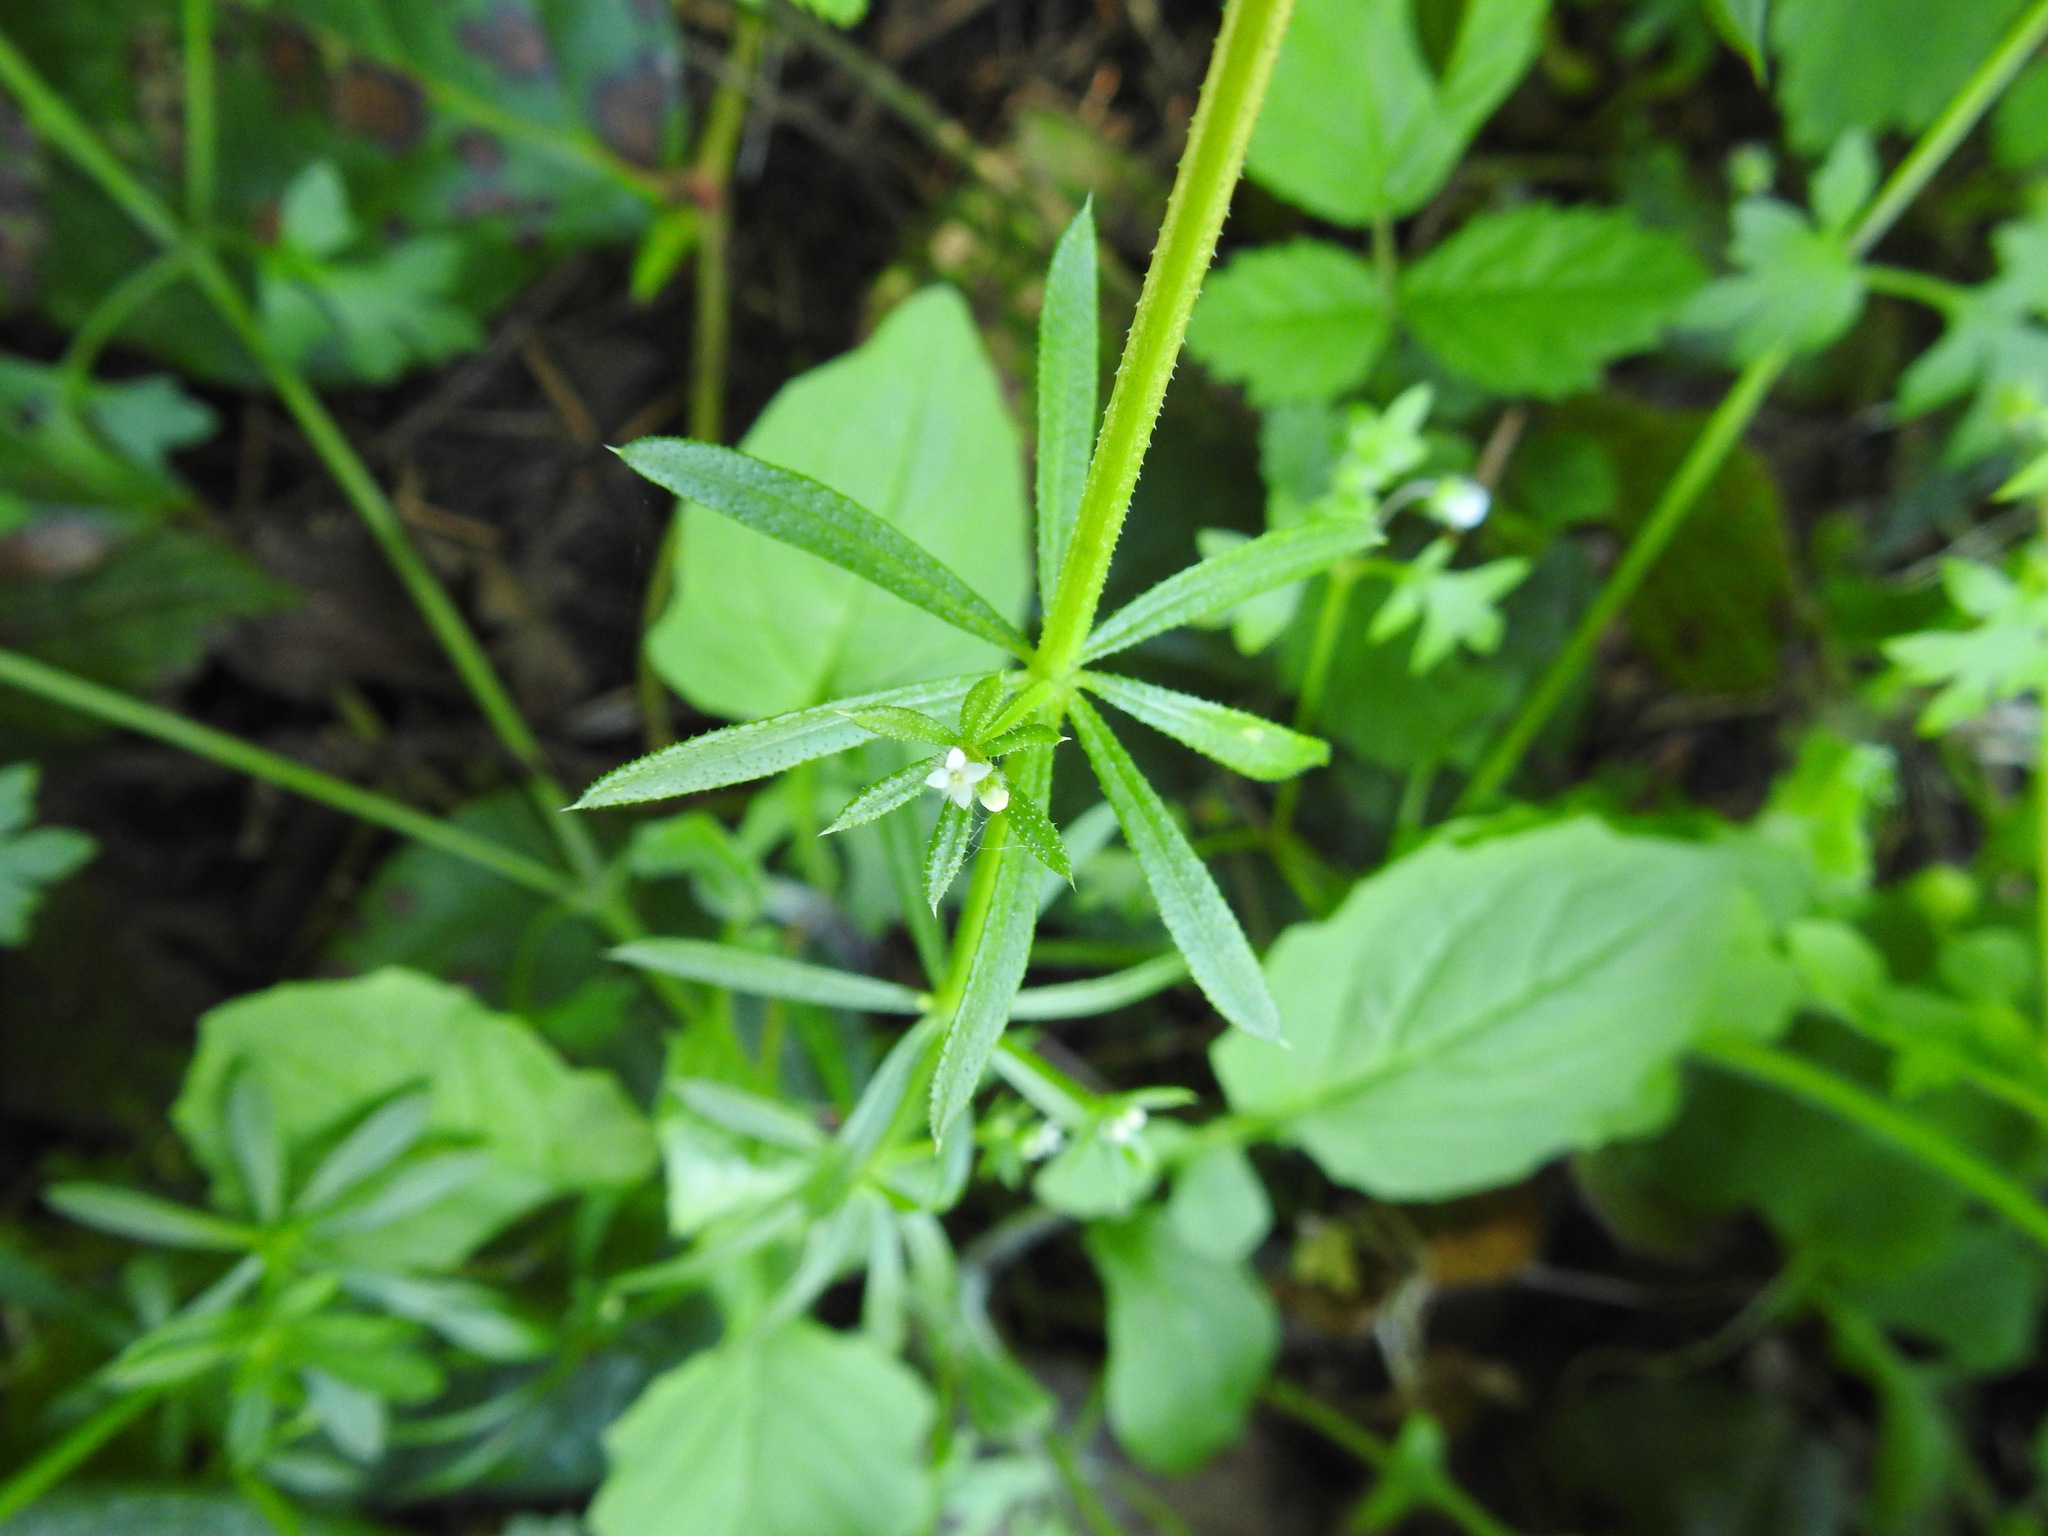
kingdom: Plantae
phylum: Tracheophyta
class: Magnoliopsida
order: Gentianales
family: Rubiaceae
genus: Galium
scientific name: Galium aparine
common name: Cleavers
